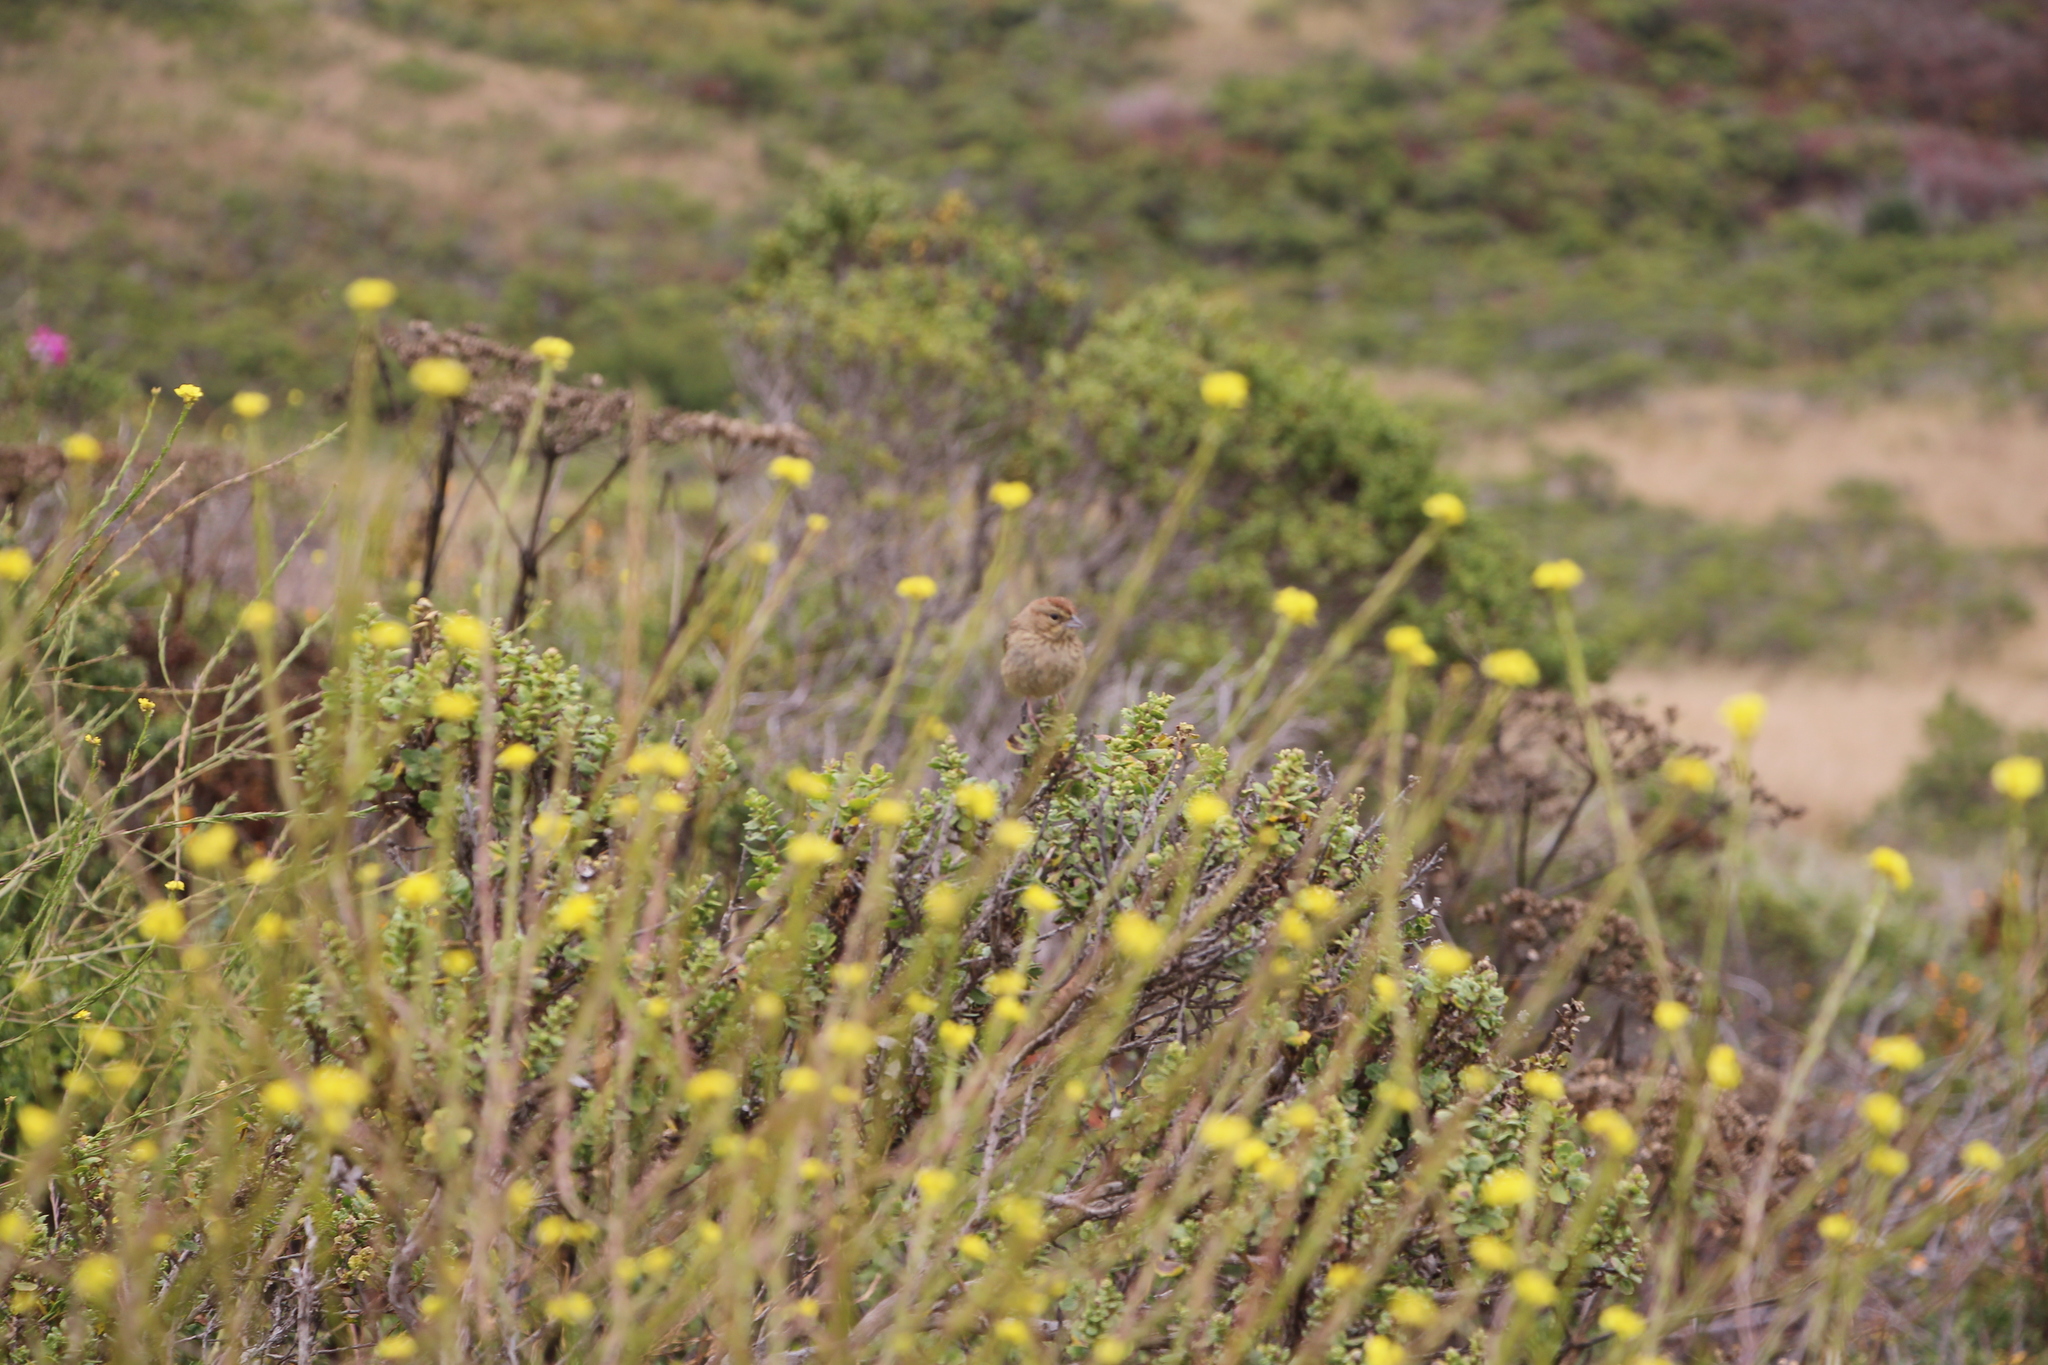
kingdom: Plantae
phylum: Tracheophyta
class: Magnoliopsida
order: Brassicales
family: Brassicaceae
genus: Hirschfeldia
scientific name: Hirschfeldia incana
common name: Hoary mustard
